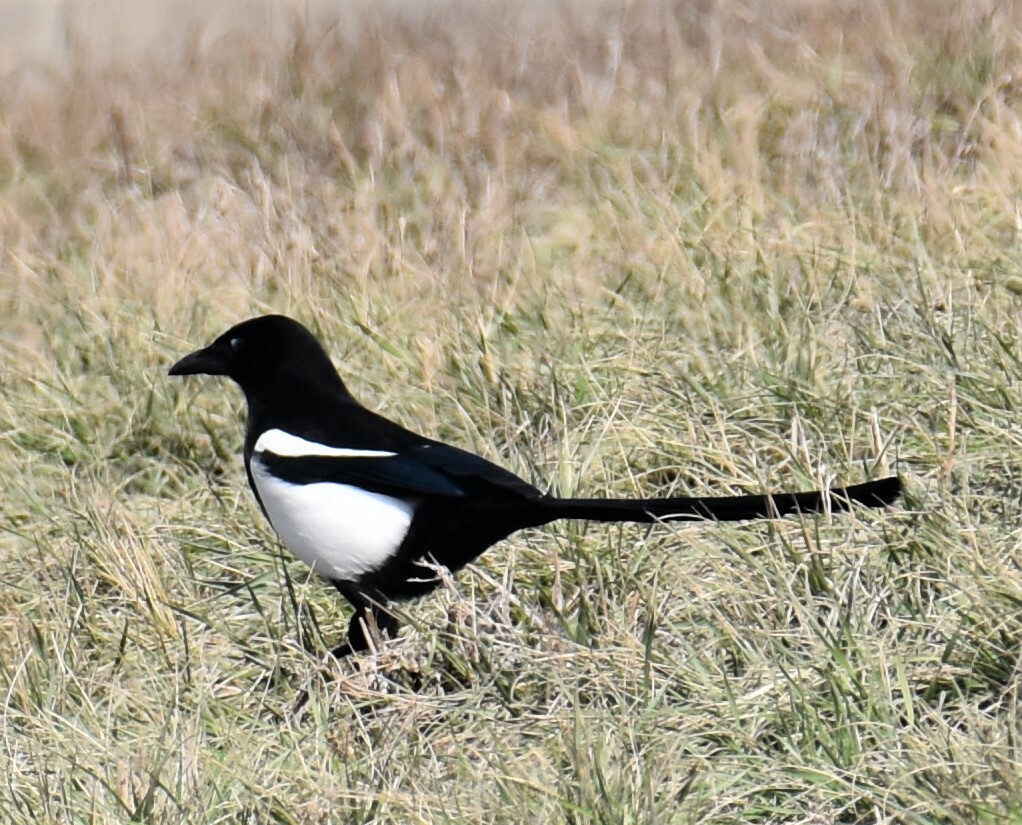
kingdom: Animalia
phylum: Chordata
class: Aves
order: Passeriformes
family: Corvidae
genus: Pica
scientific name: Pica hudsonia
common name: Black-billed magpie
